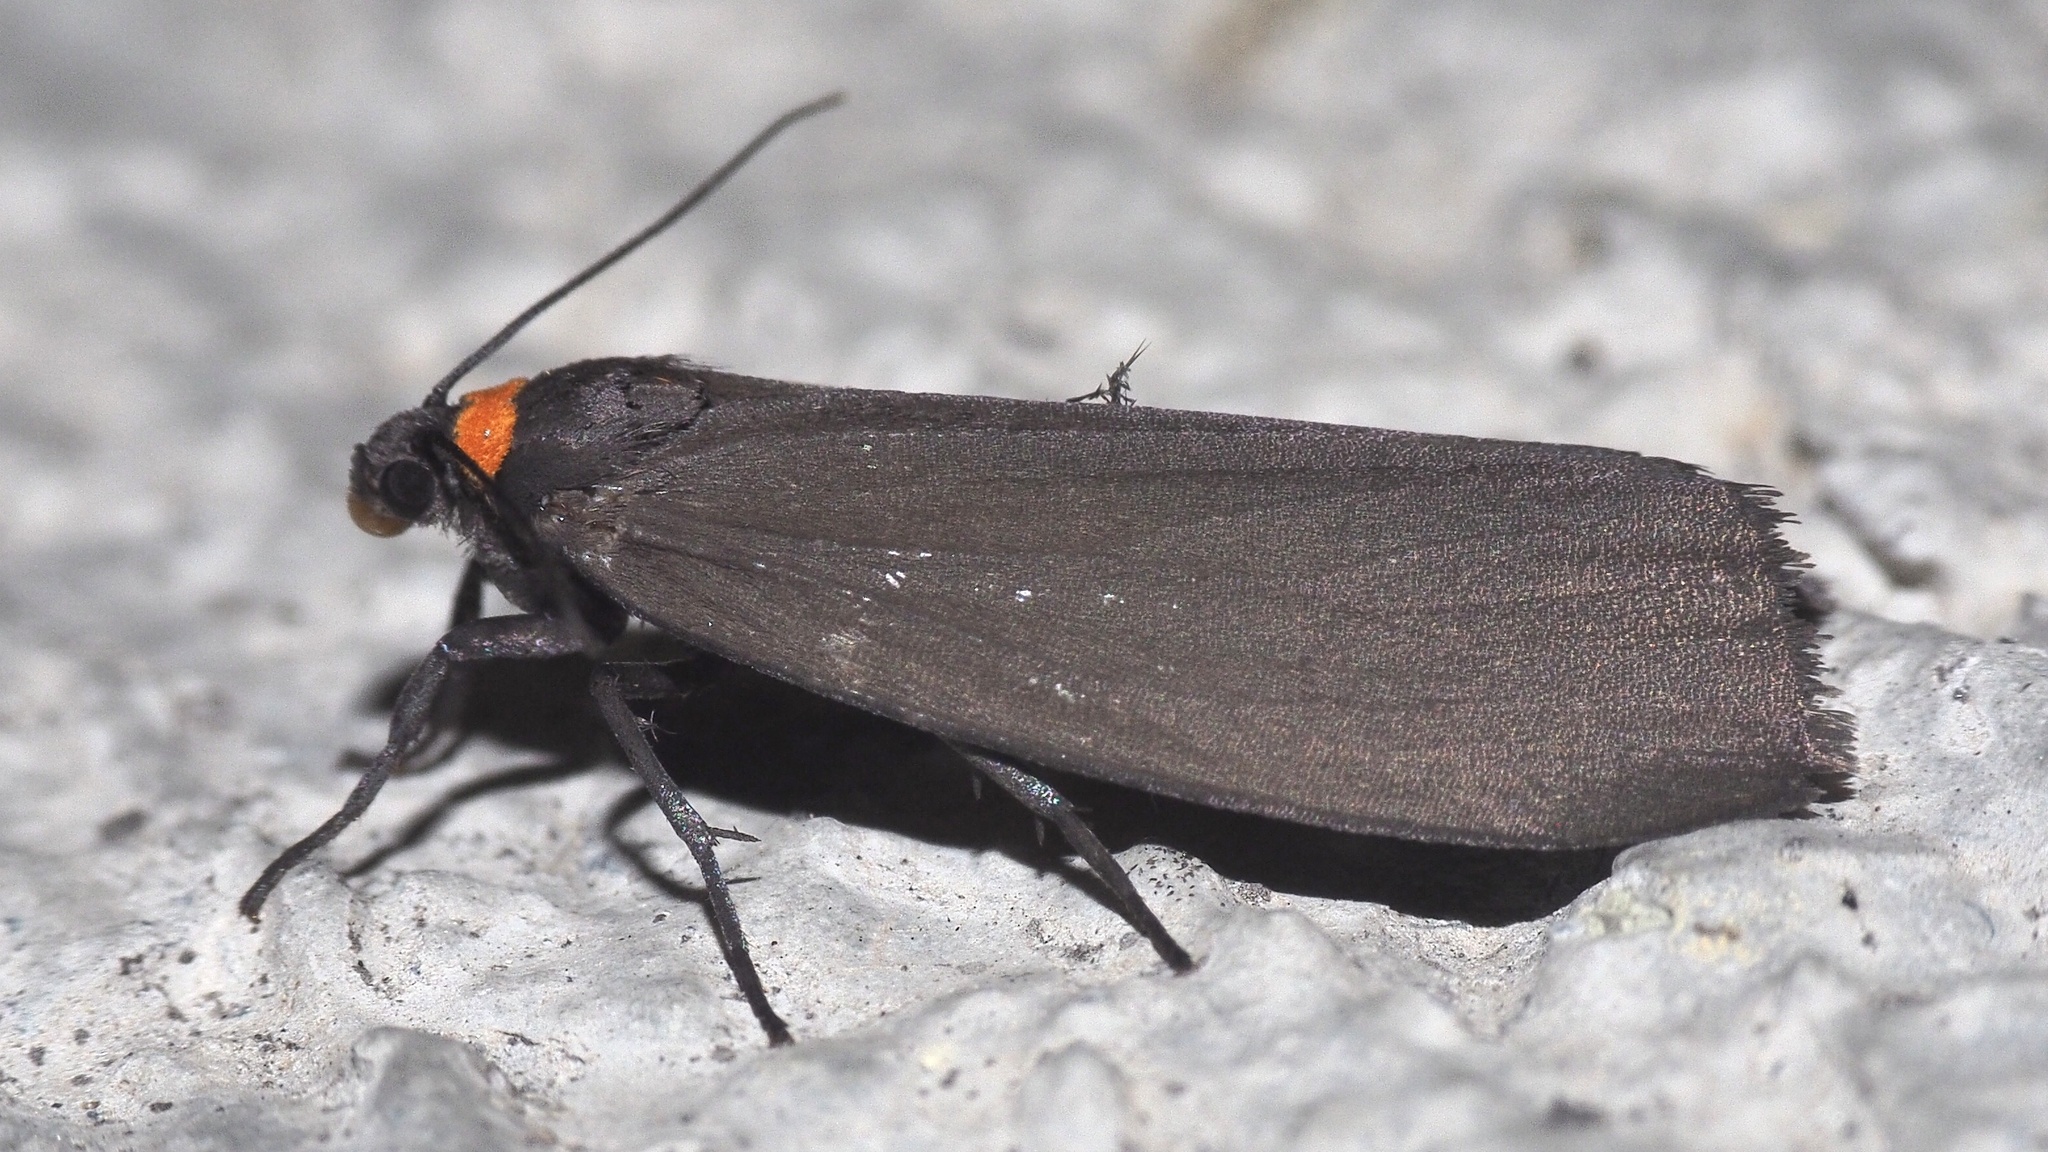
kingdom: Animalia
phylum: Arthropoda
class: Insecta
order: Lepidoptera
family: Erebidae
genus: Atolmis
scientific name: Atolmis rubricollis
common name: Red-necked footman
